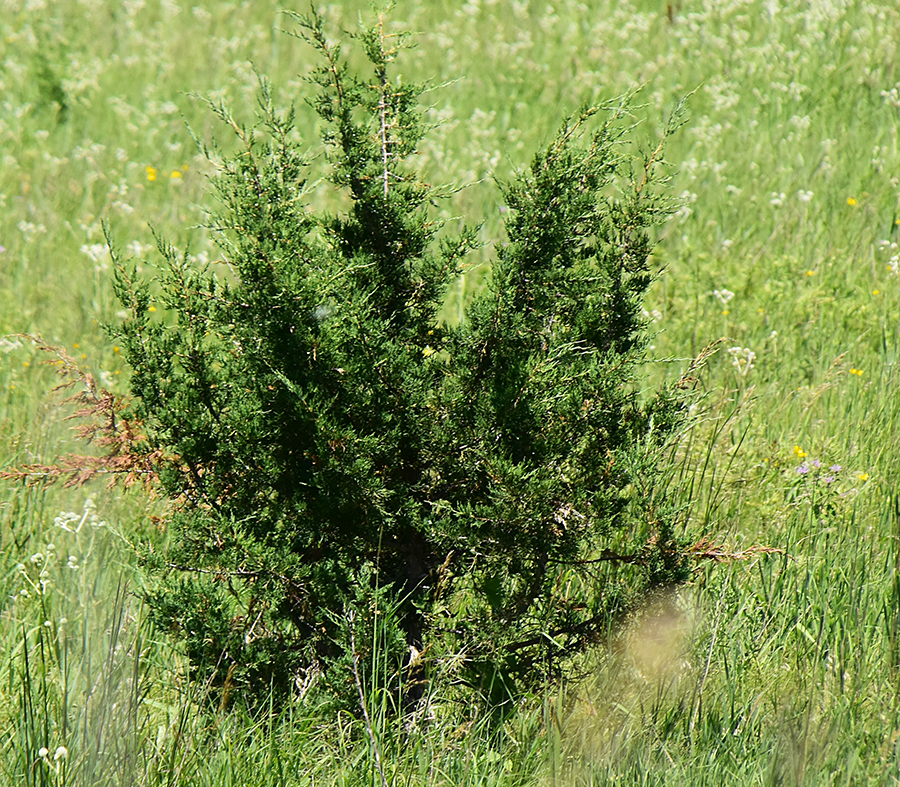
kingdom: Plantae
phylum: Tracheophyta
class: Pinopsida
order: Pinales
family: Cupressaceae
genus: Juniperus
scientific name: Juniperus virginiana
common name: Red juniper
